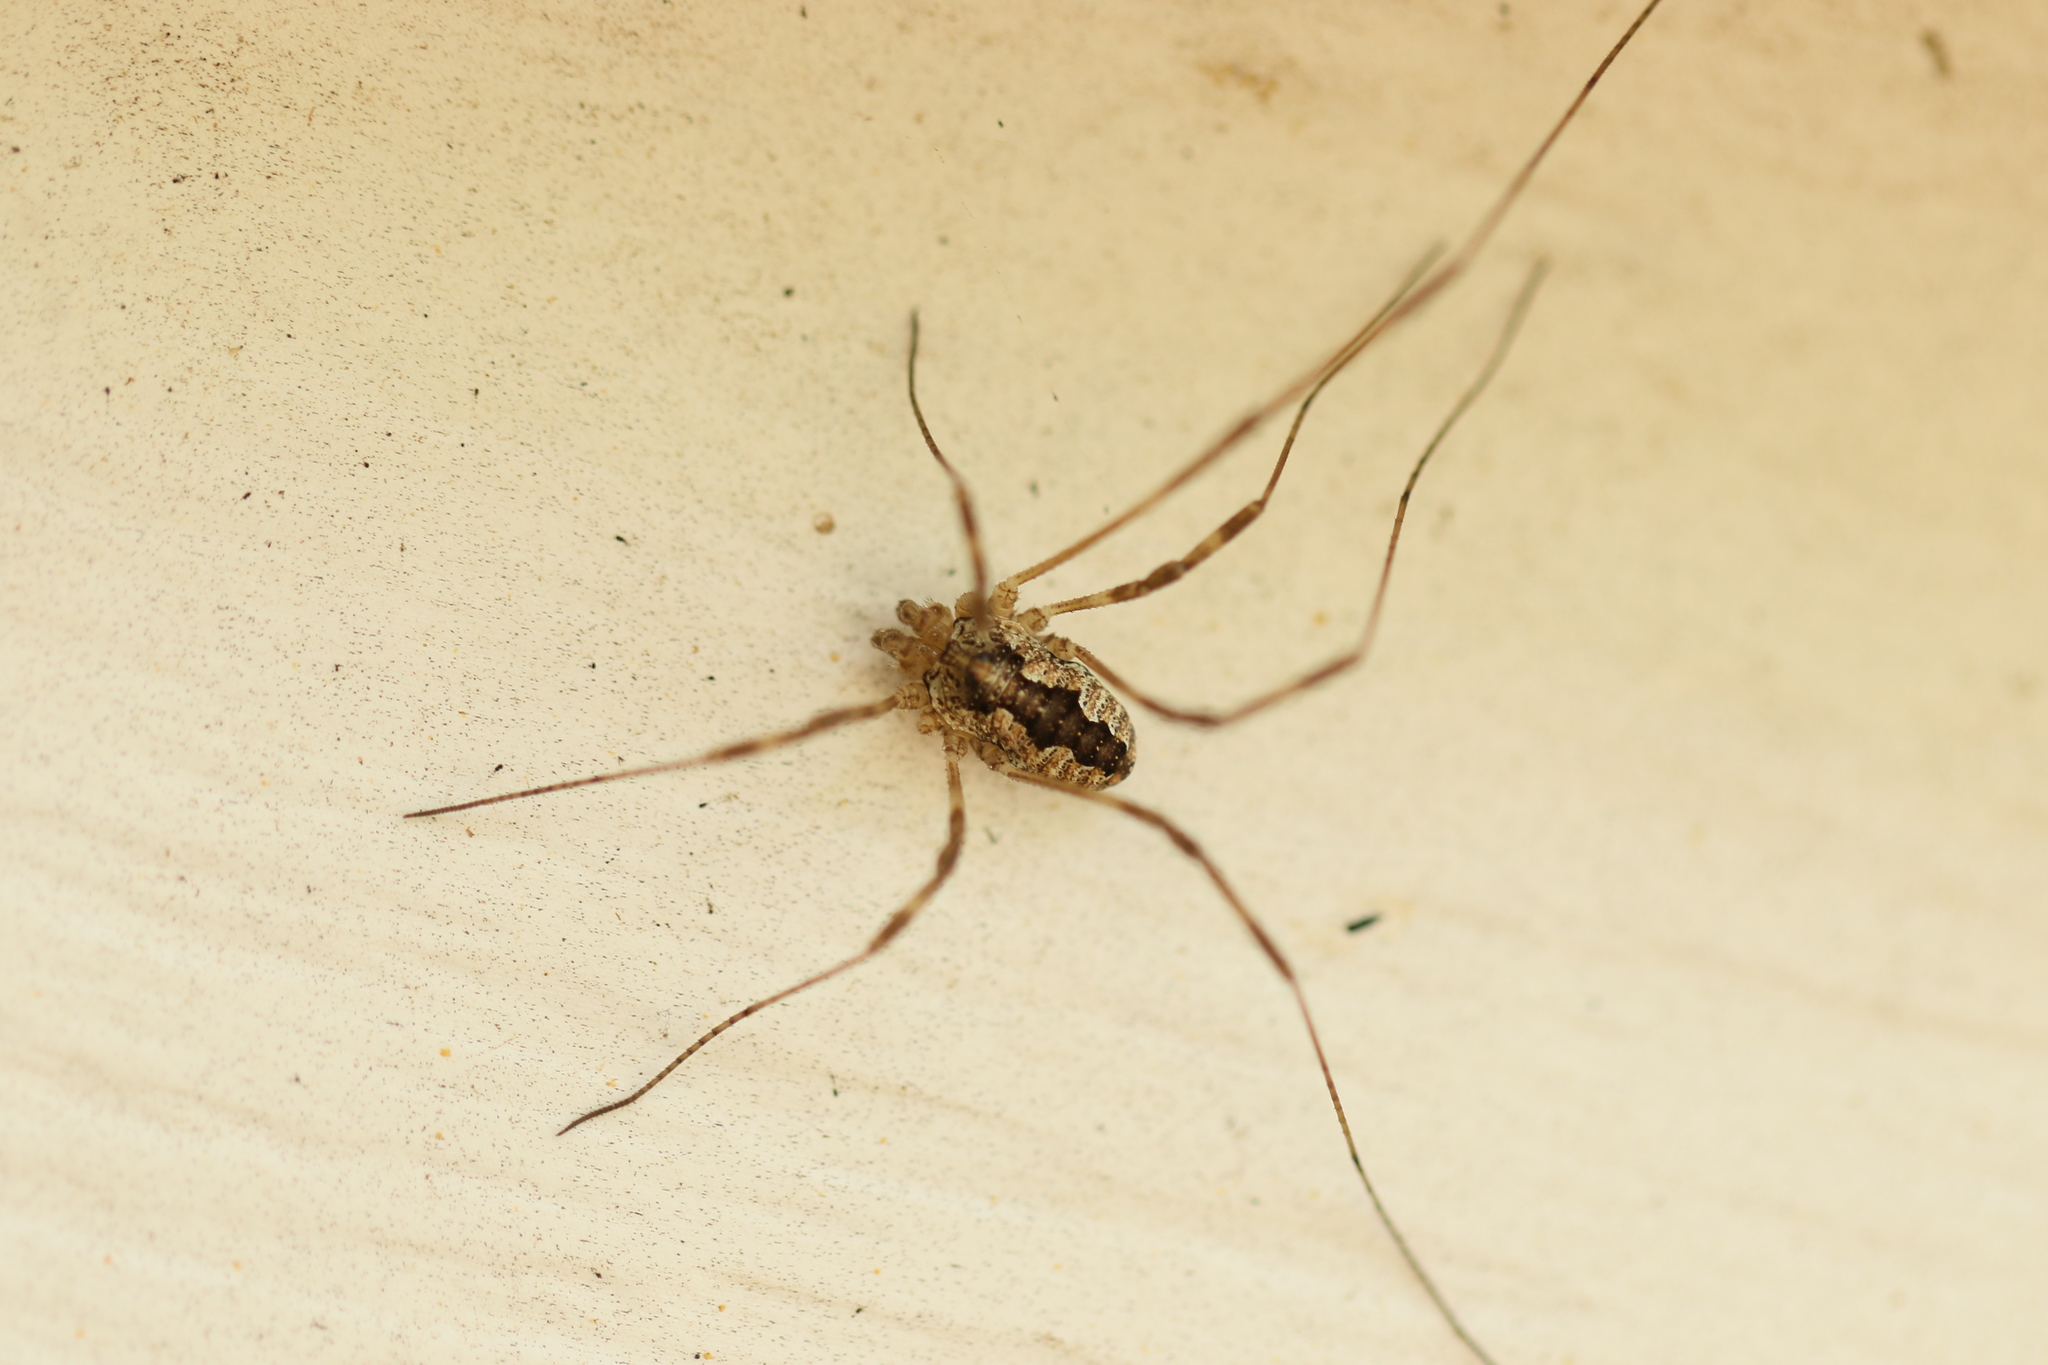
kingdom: Animalia
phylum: Arthropoda
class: Arachnida
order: Opiliones
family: Phalangiidae
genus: Odiellus
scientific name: Odiellus pictus
